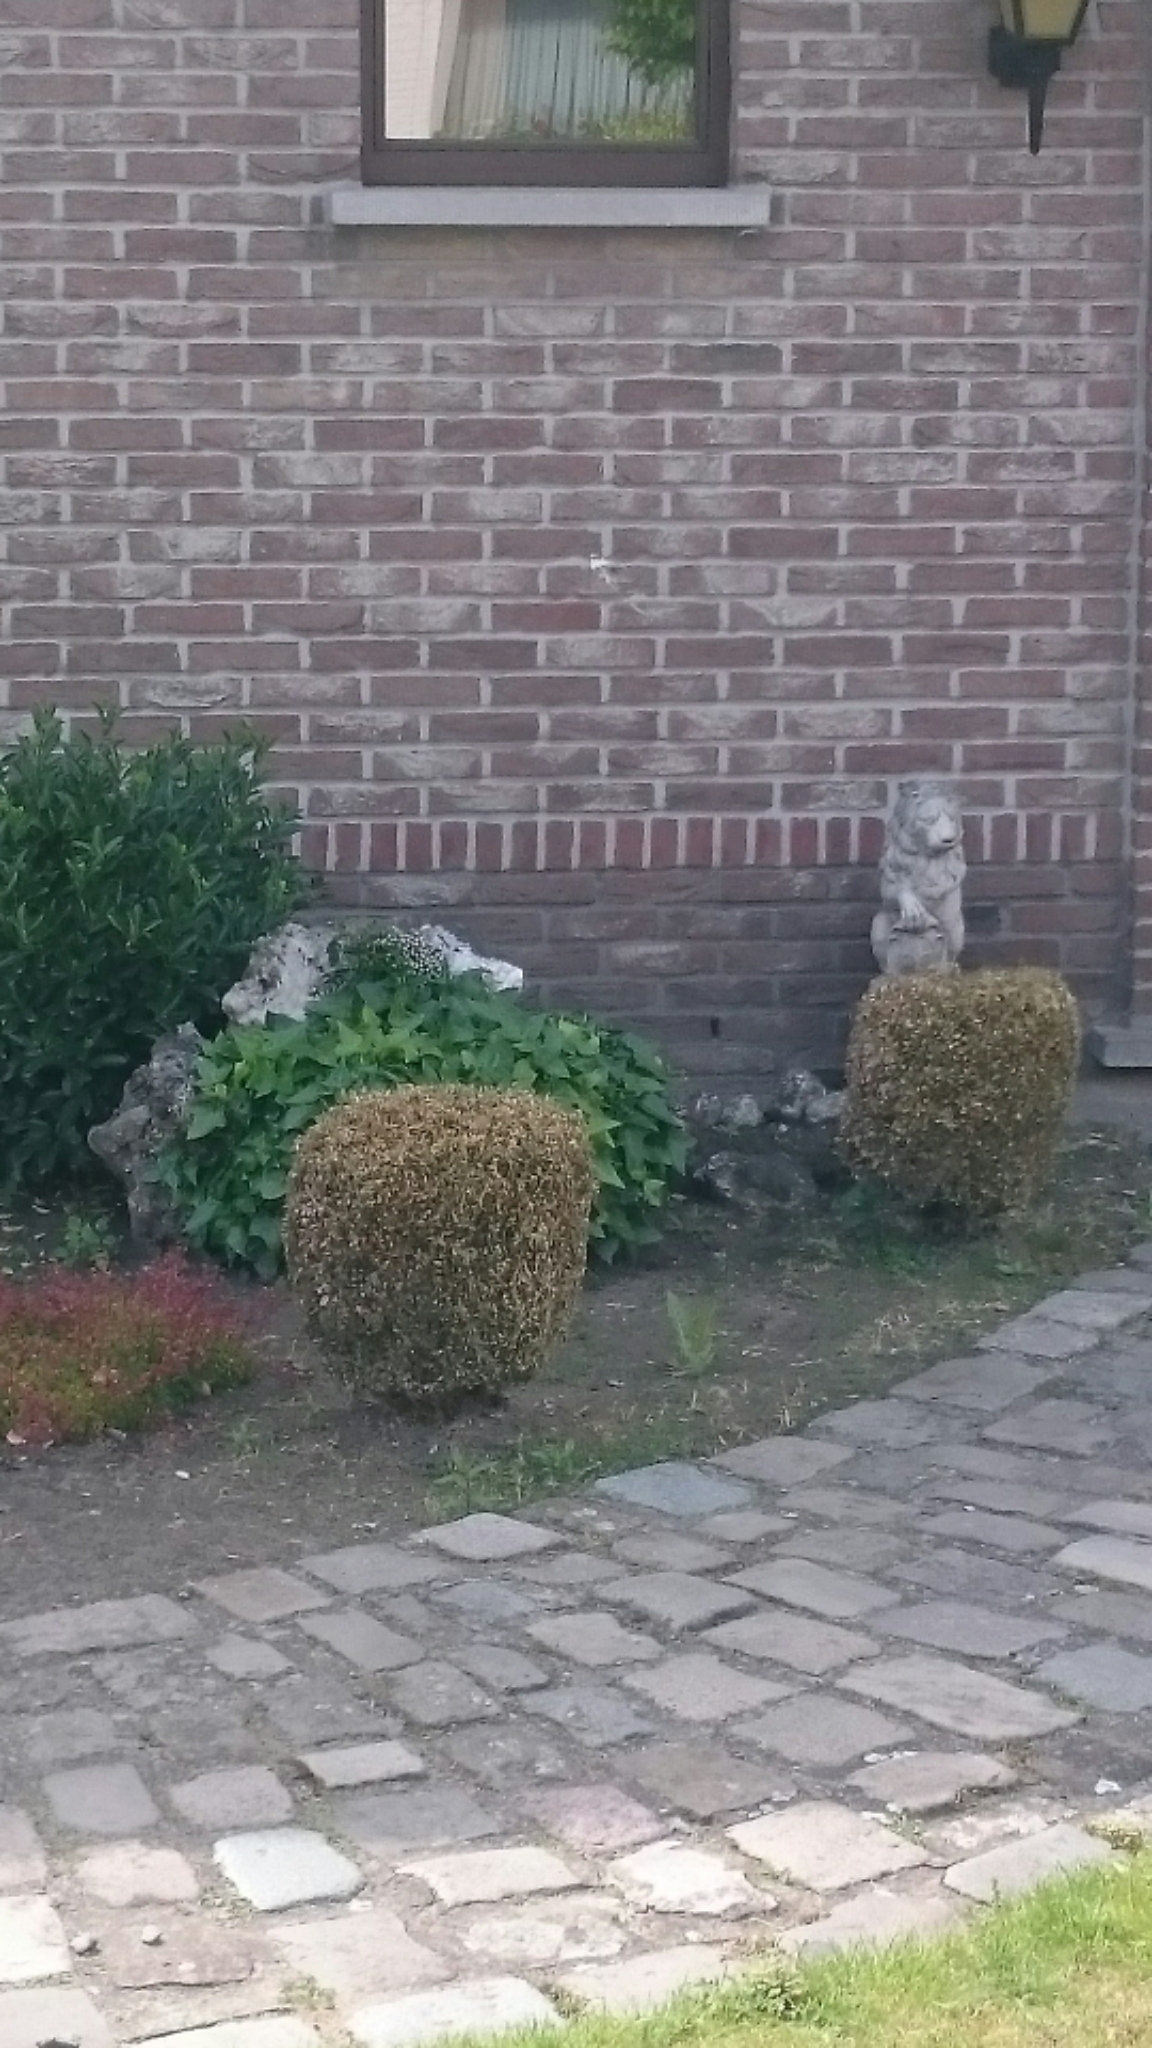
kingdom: Animalia
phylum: Arthropoda
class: Insecta
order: Lepidoptera
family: Crambidae
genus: Cydalima
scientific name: Cydalima perspectalis
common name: Box tree moth
